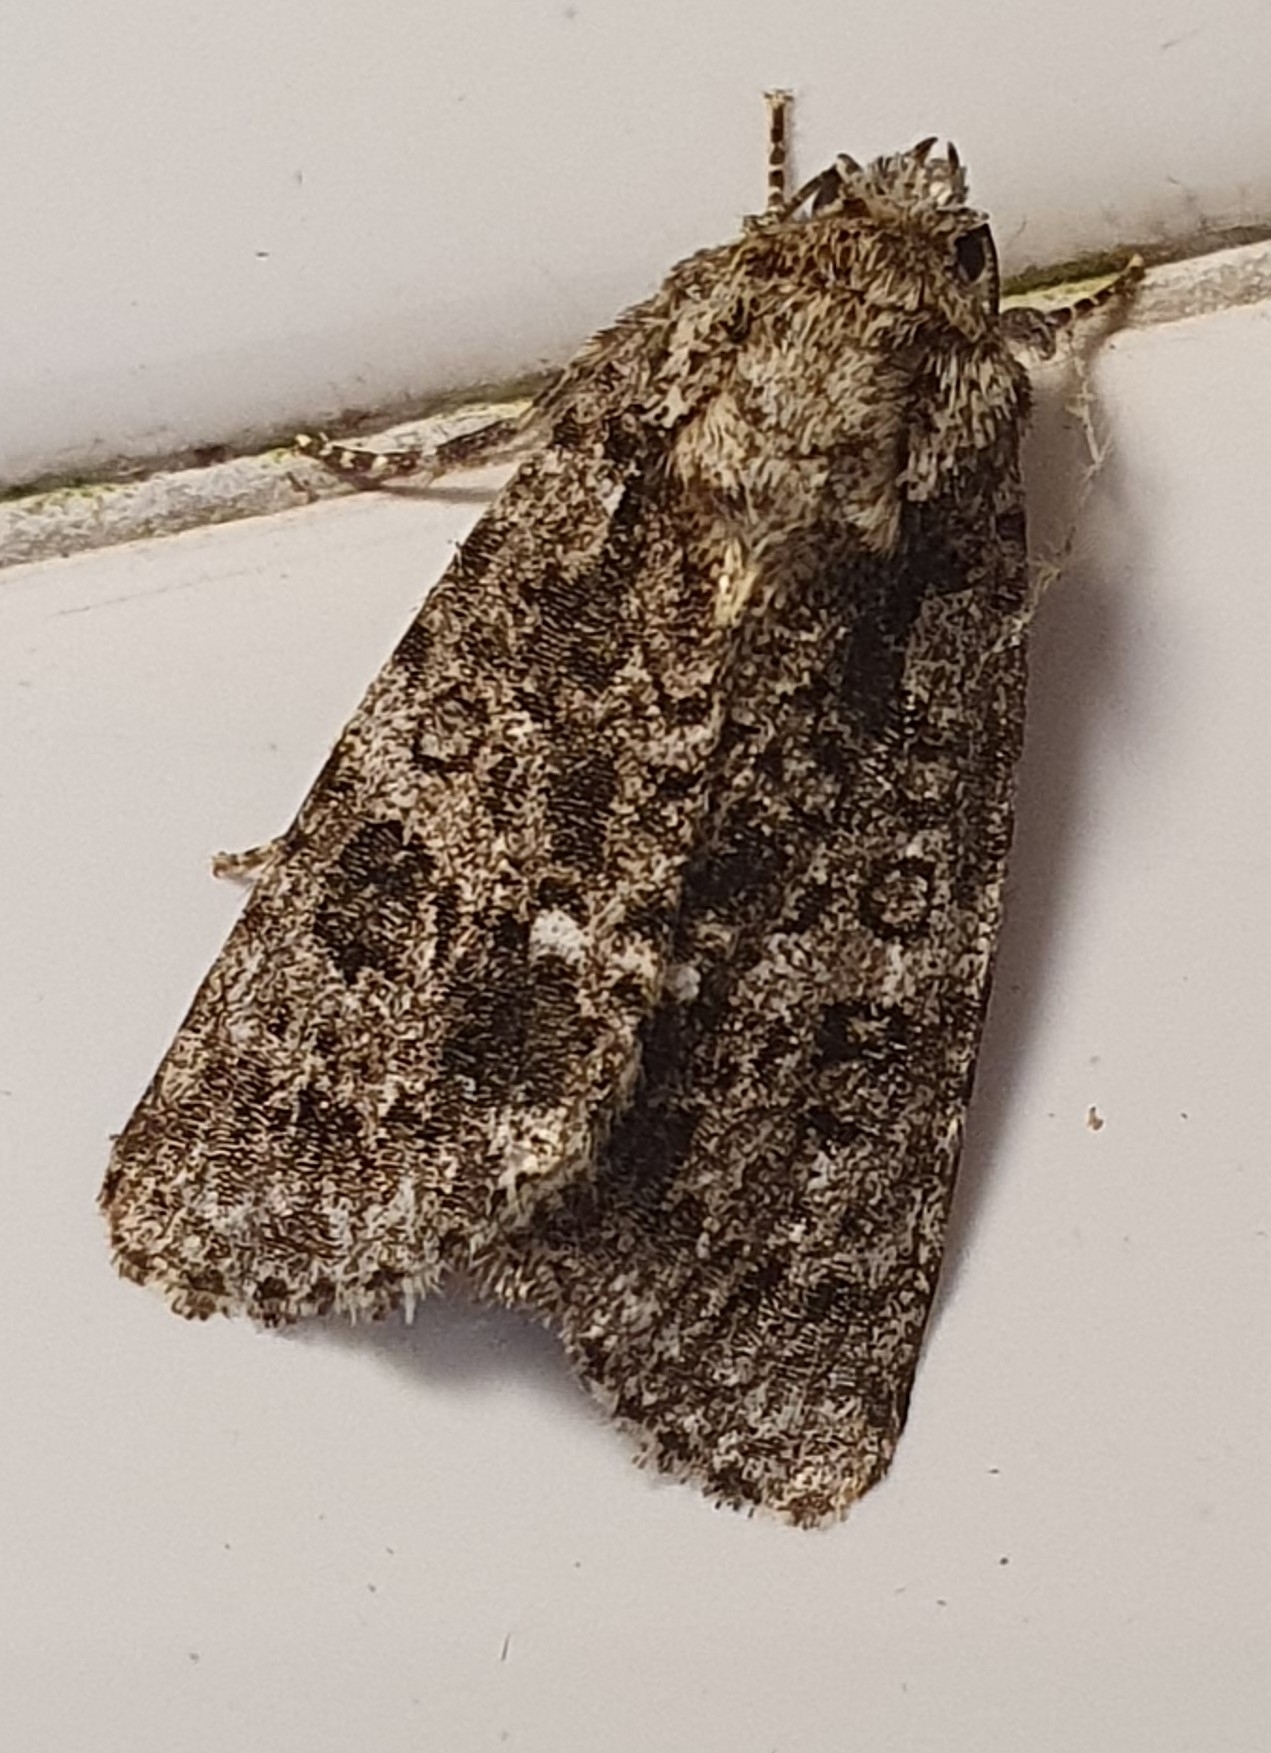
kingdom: Animalia
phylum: Arthropoda
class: Insecta
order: Lepidoptera
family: Noctuidae
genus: Acronicta
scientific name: Acronicta rumicis
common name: Knot grass
